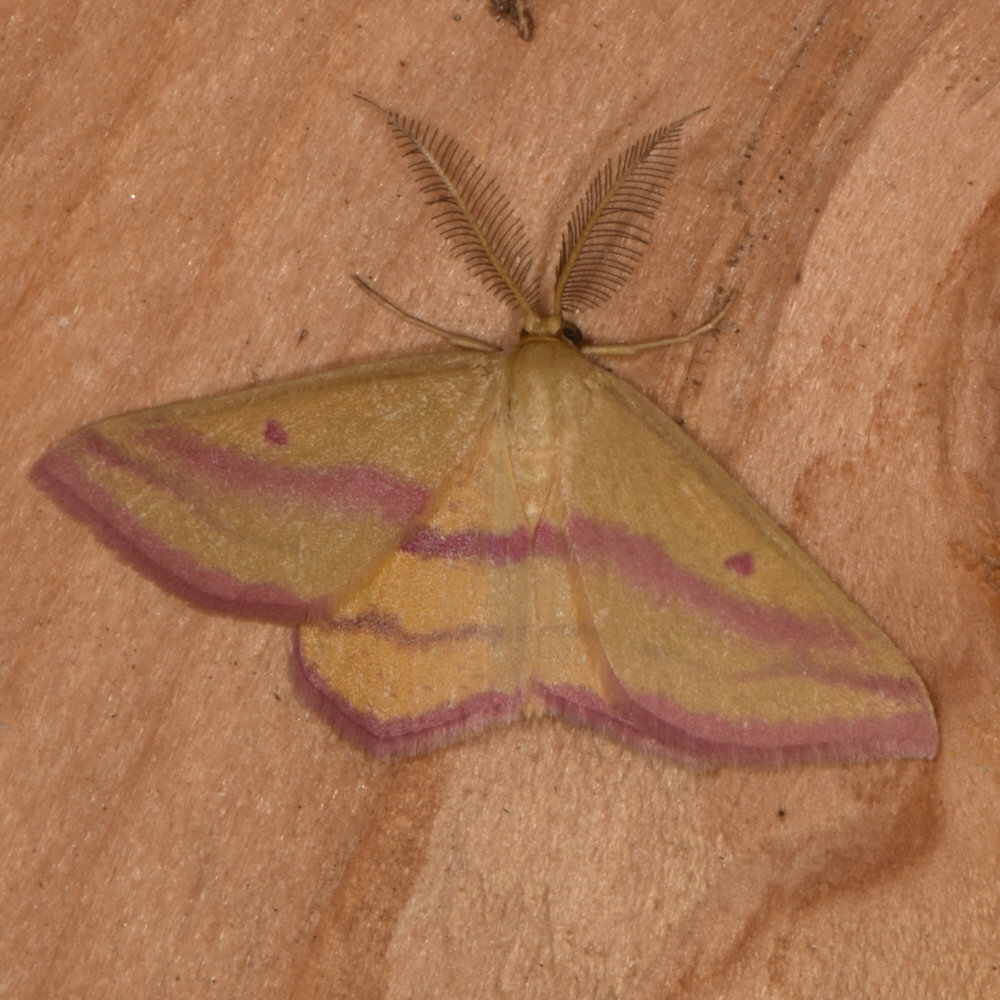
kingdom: Animalia
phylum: Arthropoda
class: Insecta
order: Lepidoptera
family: Geometridae
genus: Haematopis
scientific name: Haematopis grataria
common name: Chickweed geometer
